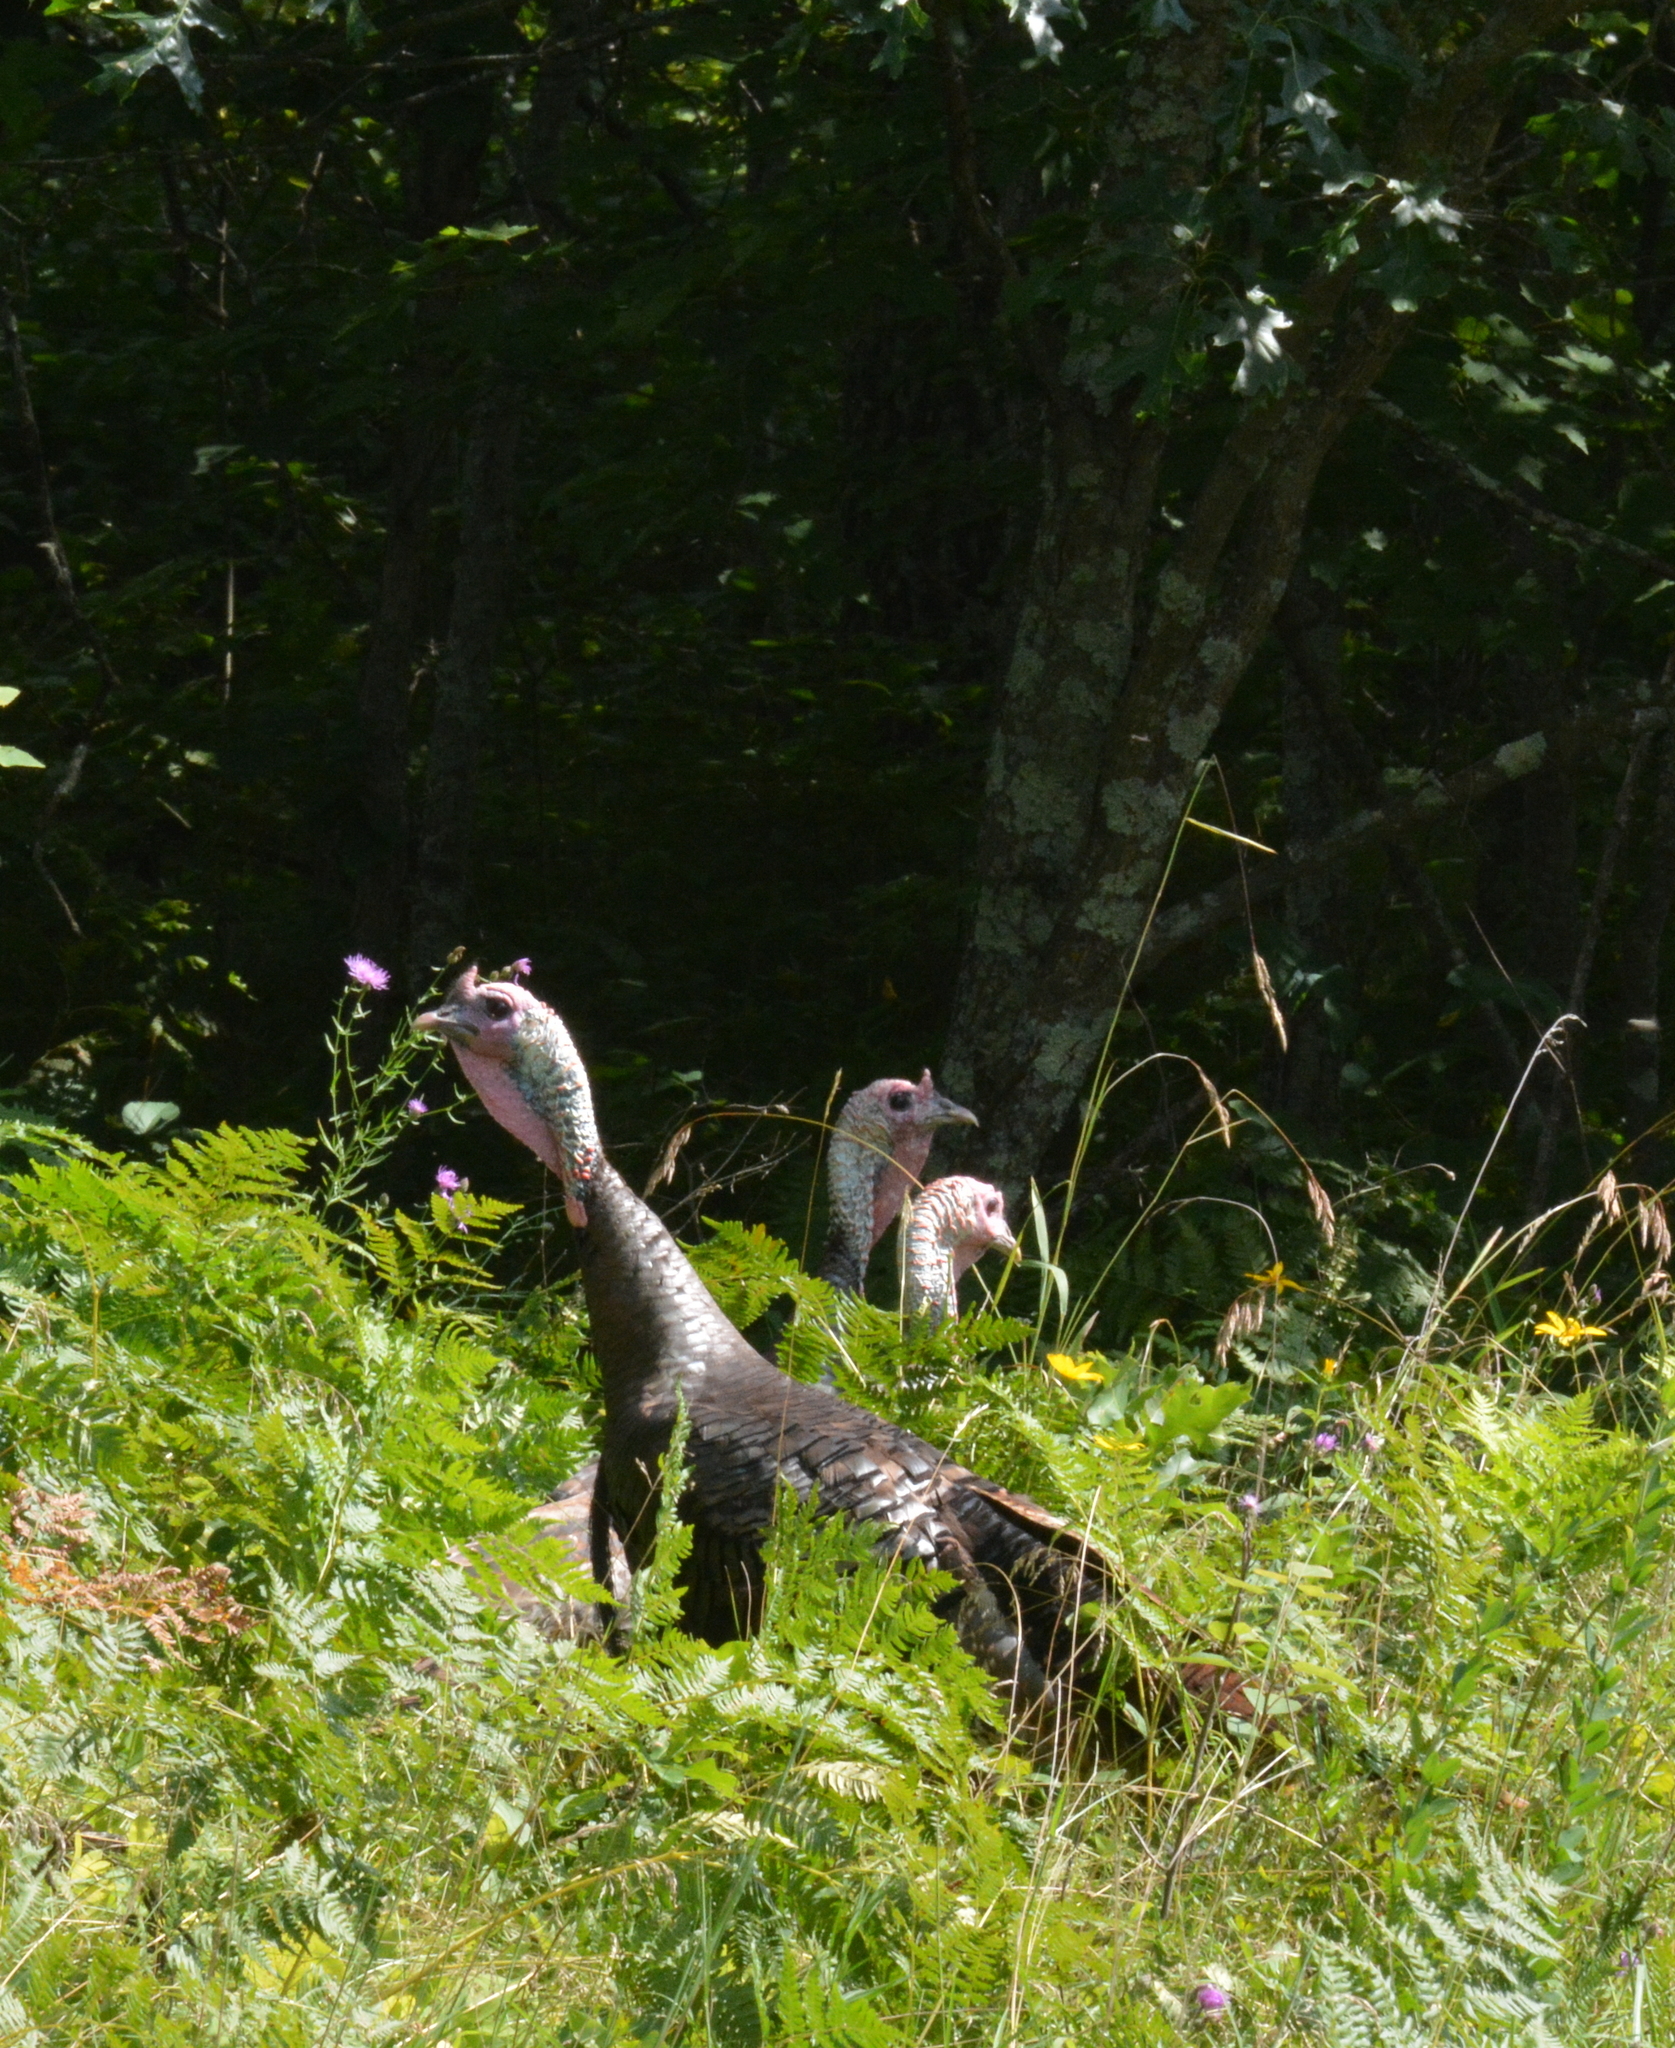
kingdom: Animalia
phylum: Chordata
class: Aves
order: Galliformes
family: Phasianidae
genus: Meleagris
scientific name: Meleagris gallopavo
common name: Wild turkey
